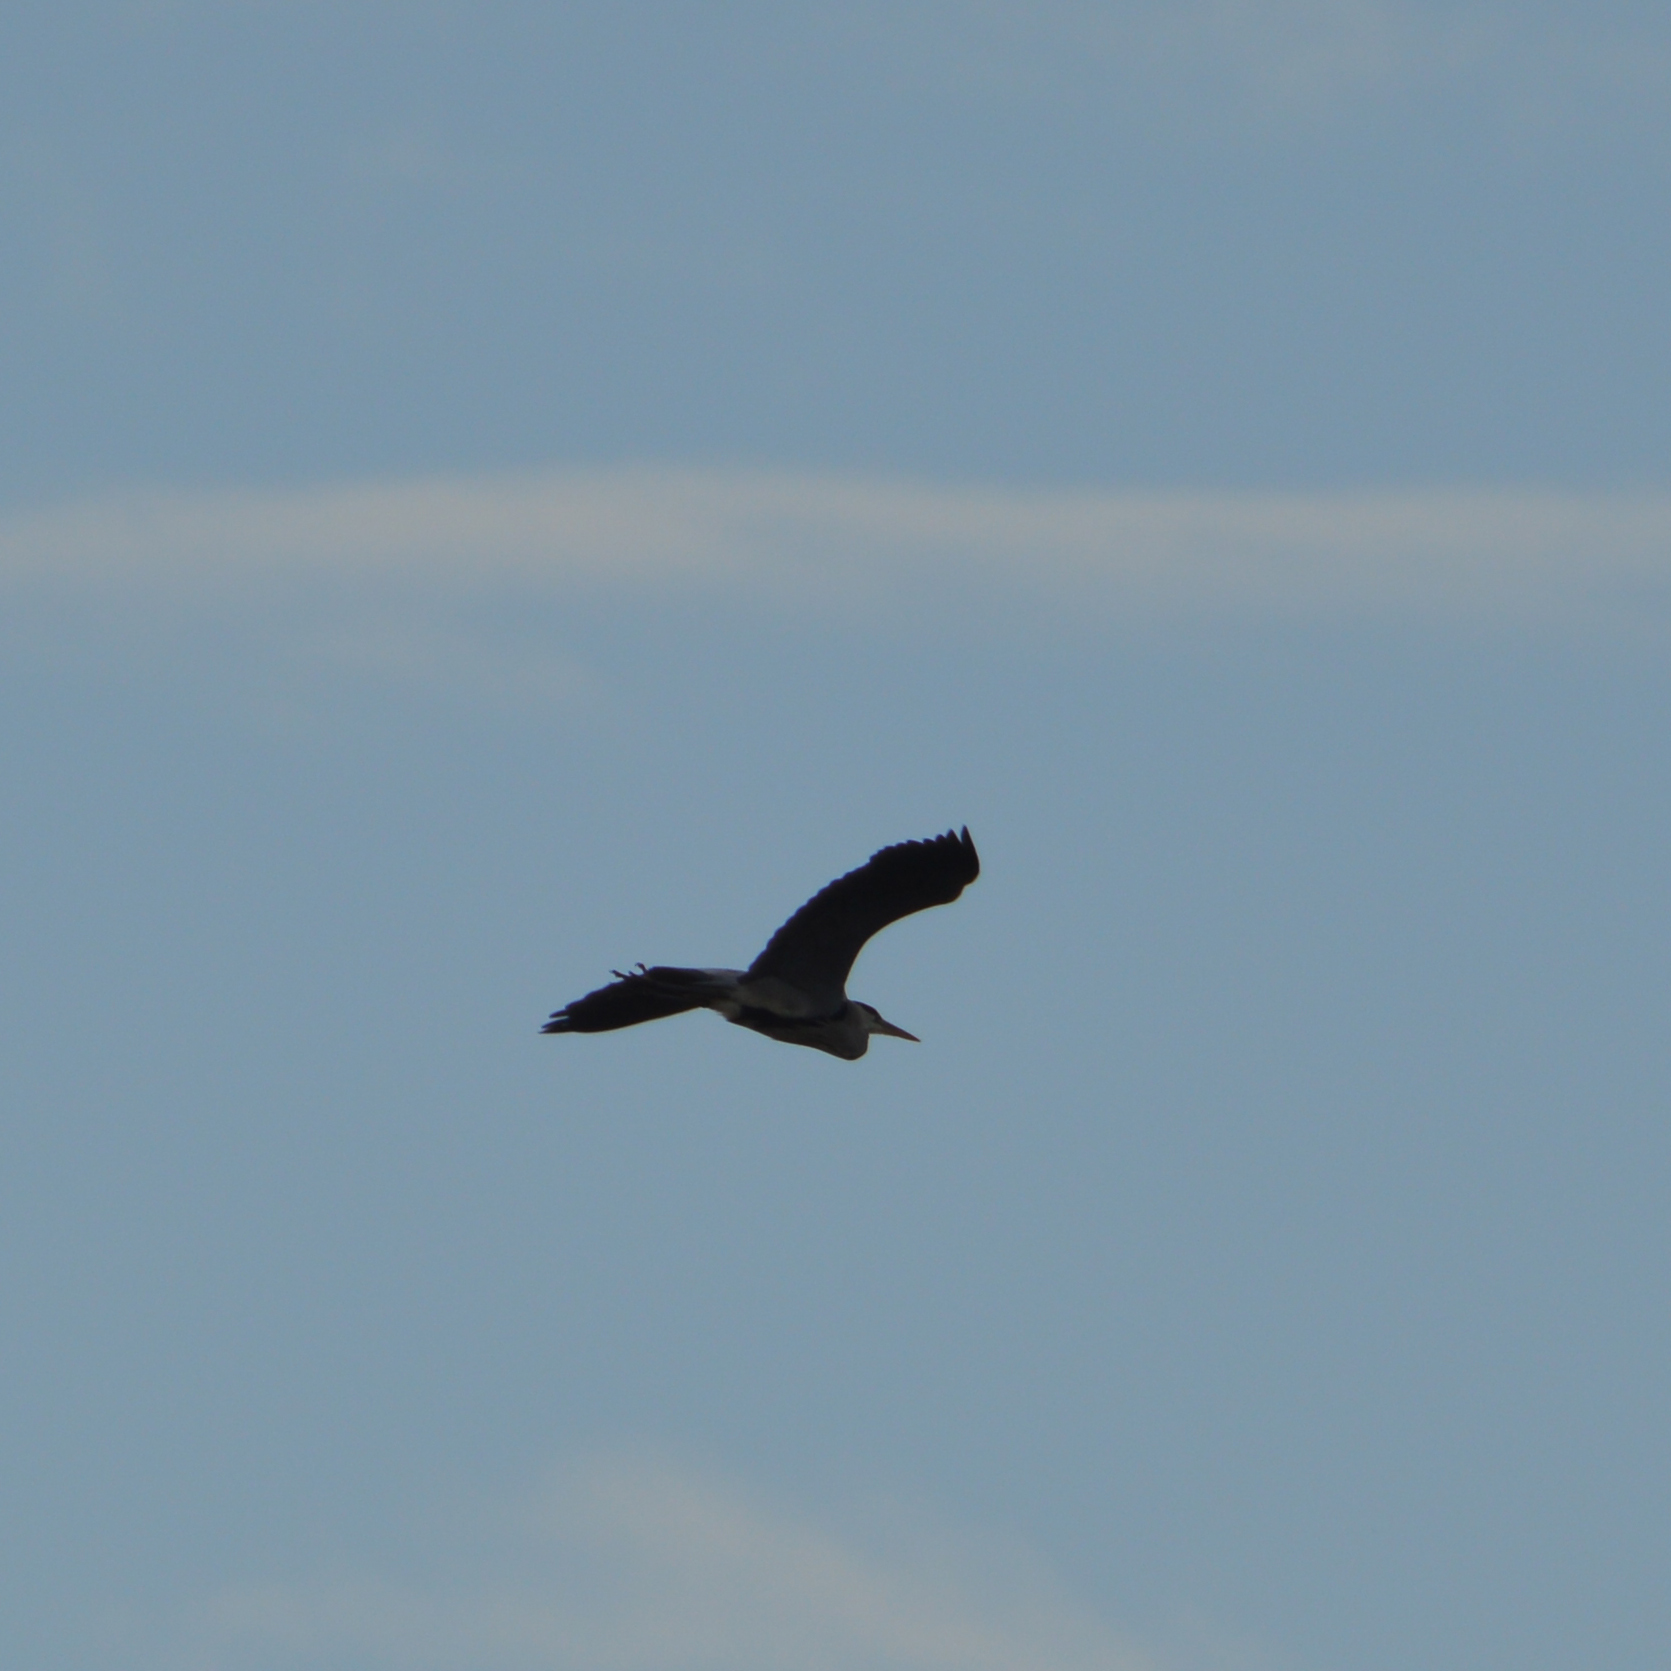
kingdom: Animalia
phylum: Chordata
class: Aves
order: Pelecaniformes
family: Ardeidae
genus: Ardea
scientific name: Ardea cinerea
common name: Grey heron
